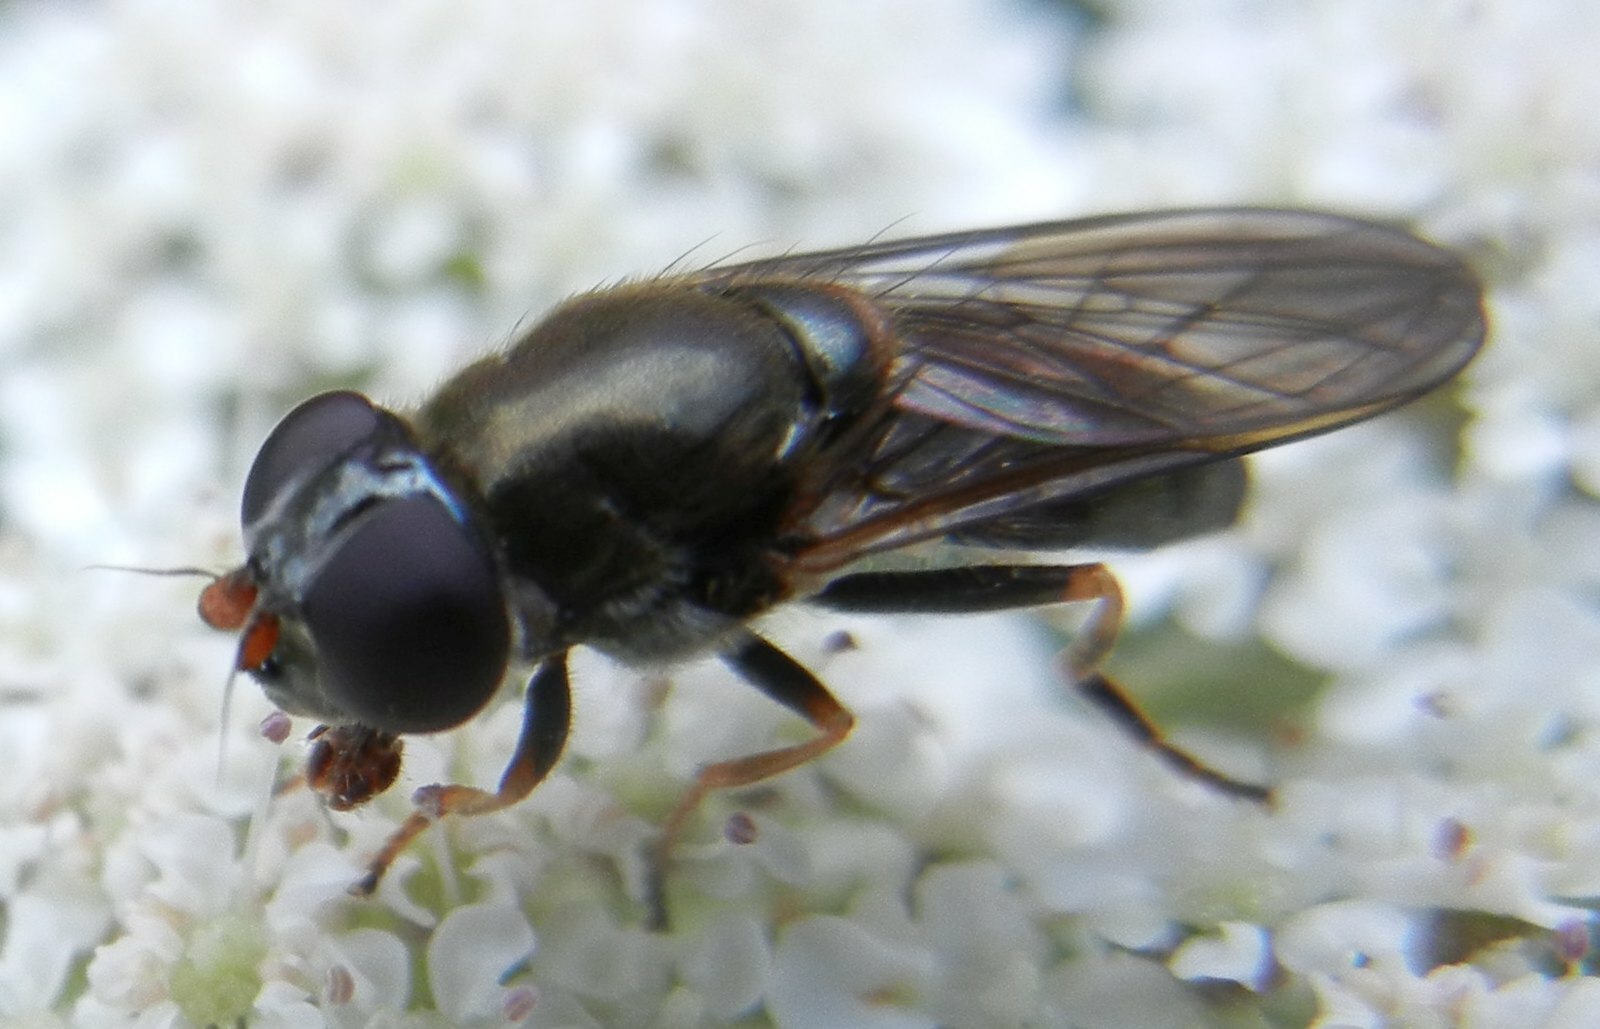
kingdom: Animalia
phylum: Arthropoda
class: Insecta
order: Diptera
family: Syrphidae
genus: Cheilosia
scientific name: Cheilosia ruffipes
